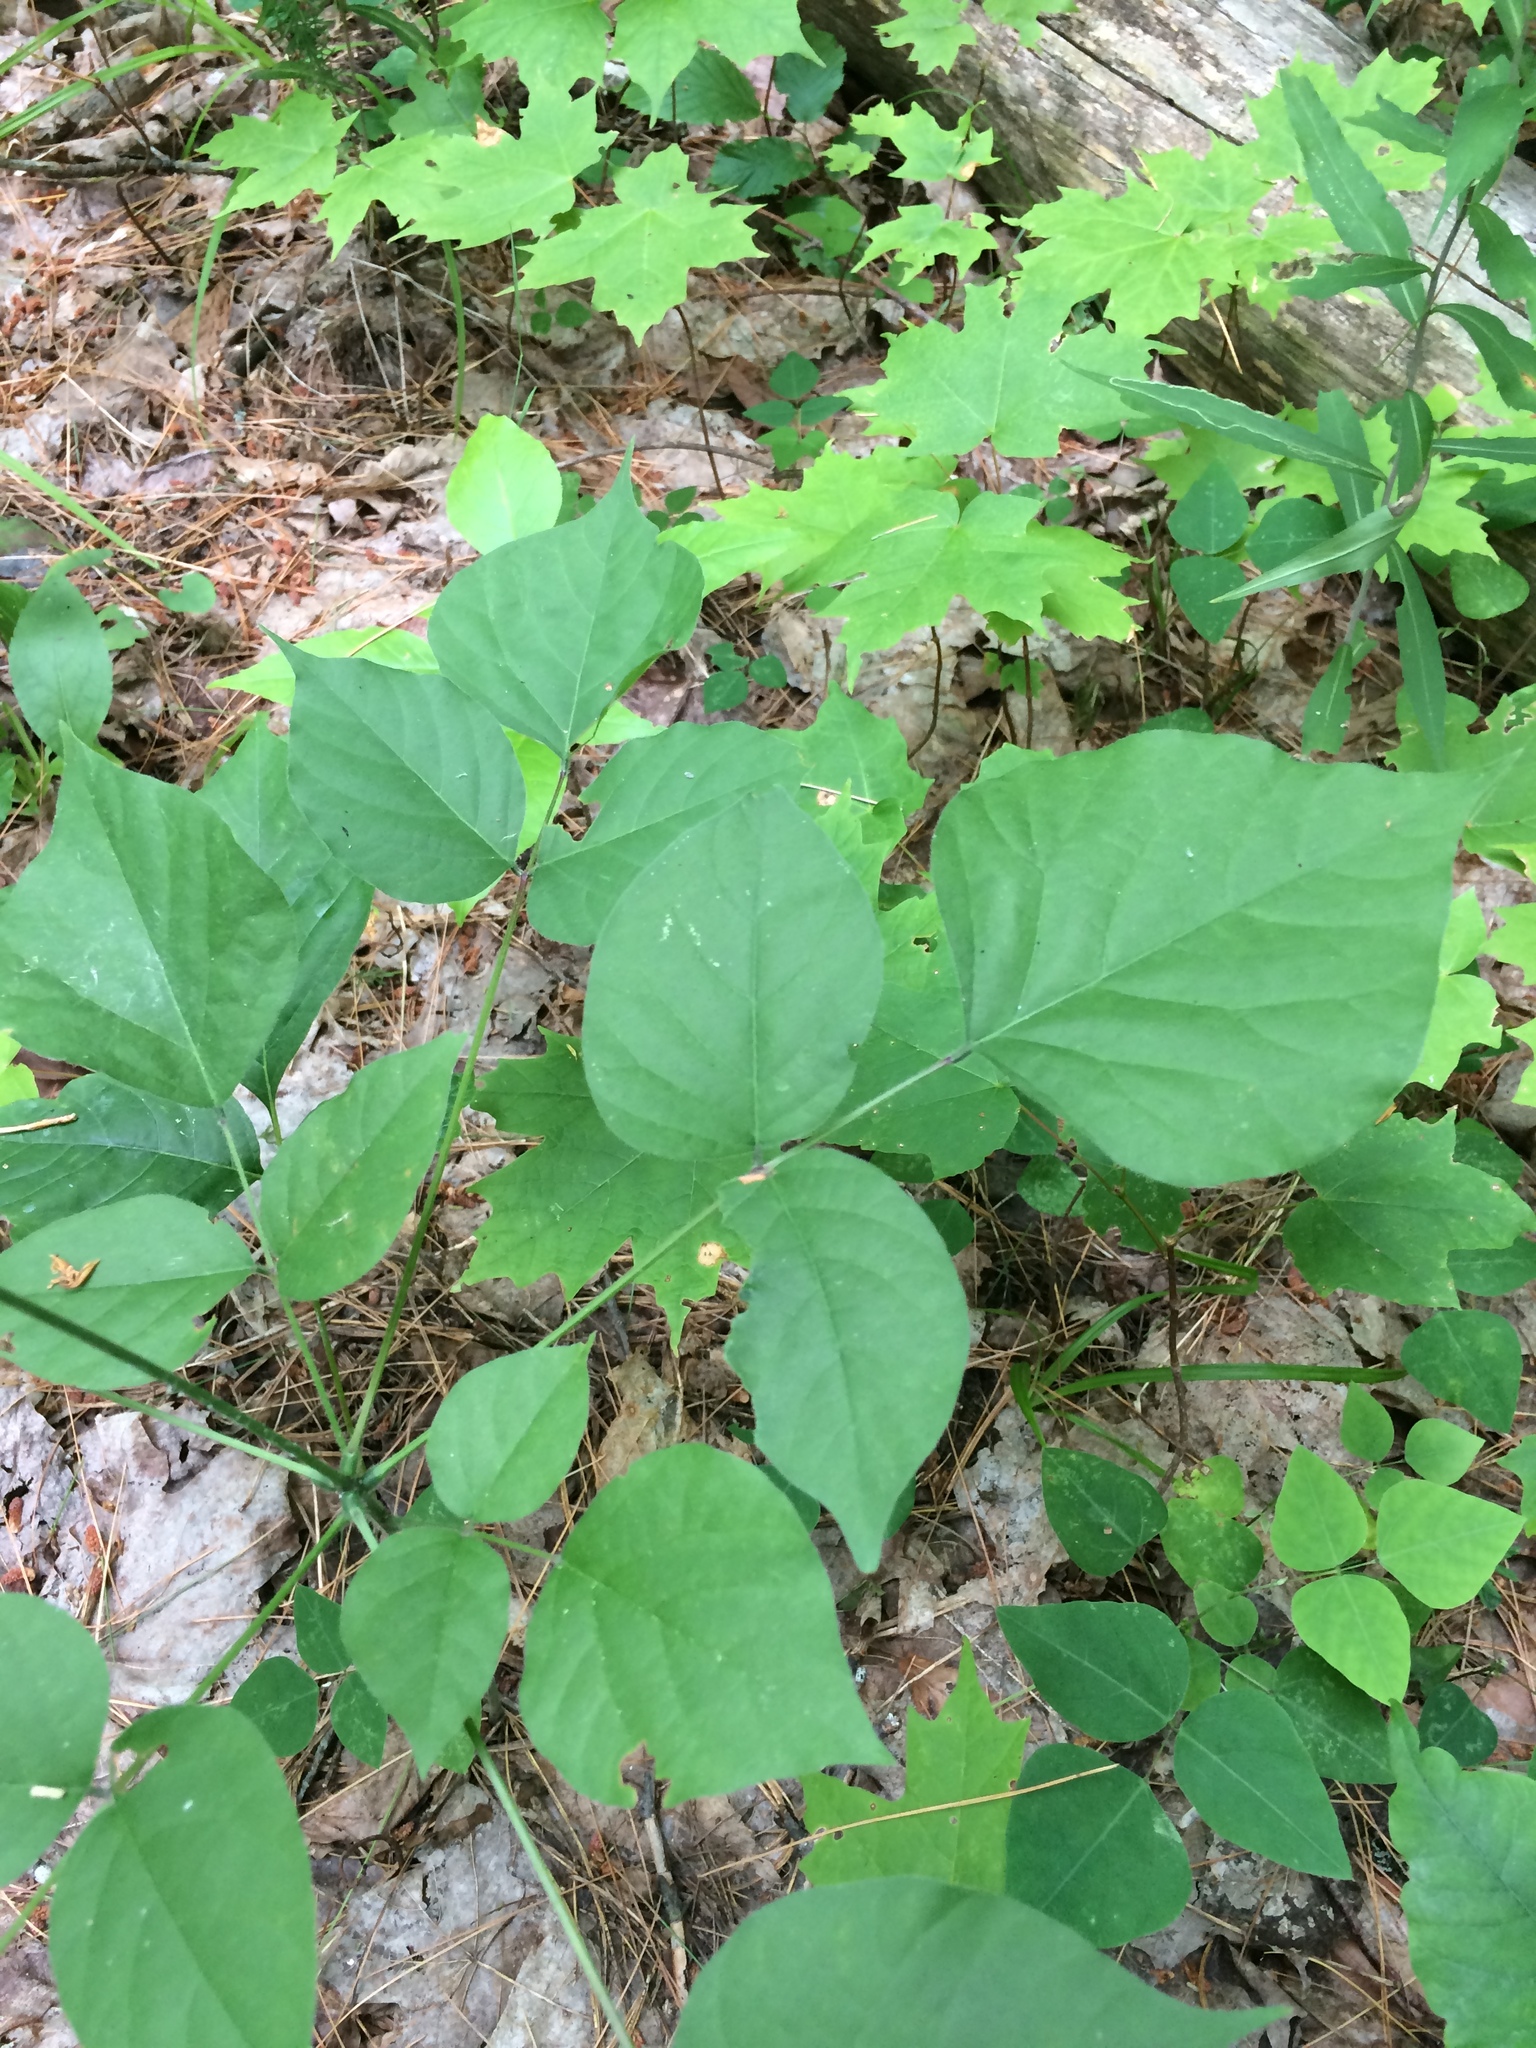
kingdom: Plantae
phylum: Tracheophyta
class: Magnoliopsida
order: Fabales
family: Fabaceae
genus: Hylodesmum
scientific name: Hylodesmum glutinosum
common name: Clustered-leaved tick-trefoil
